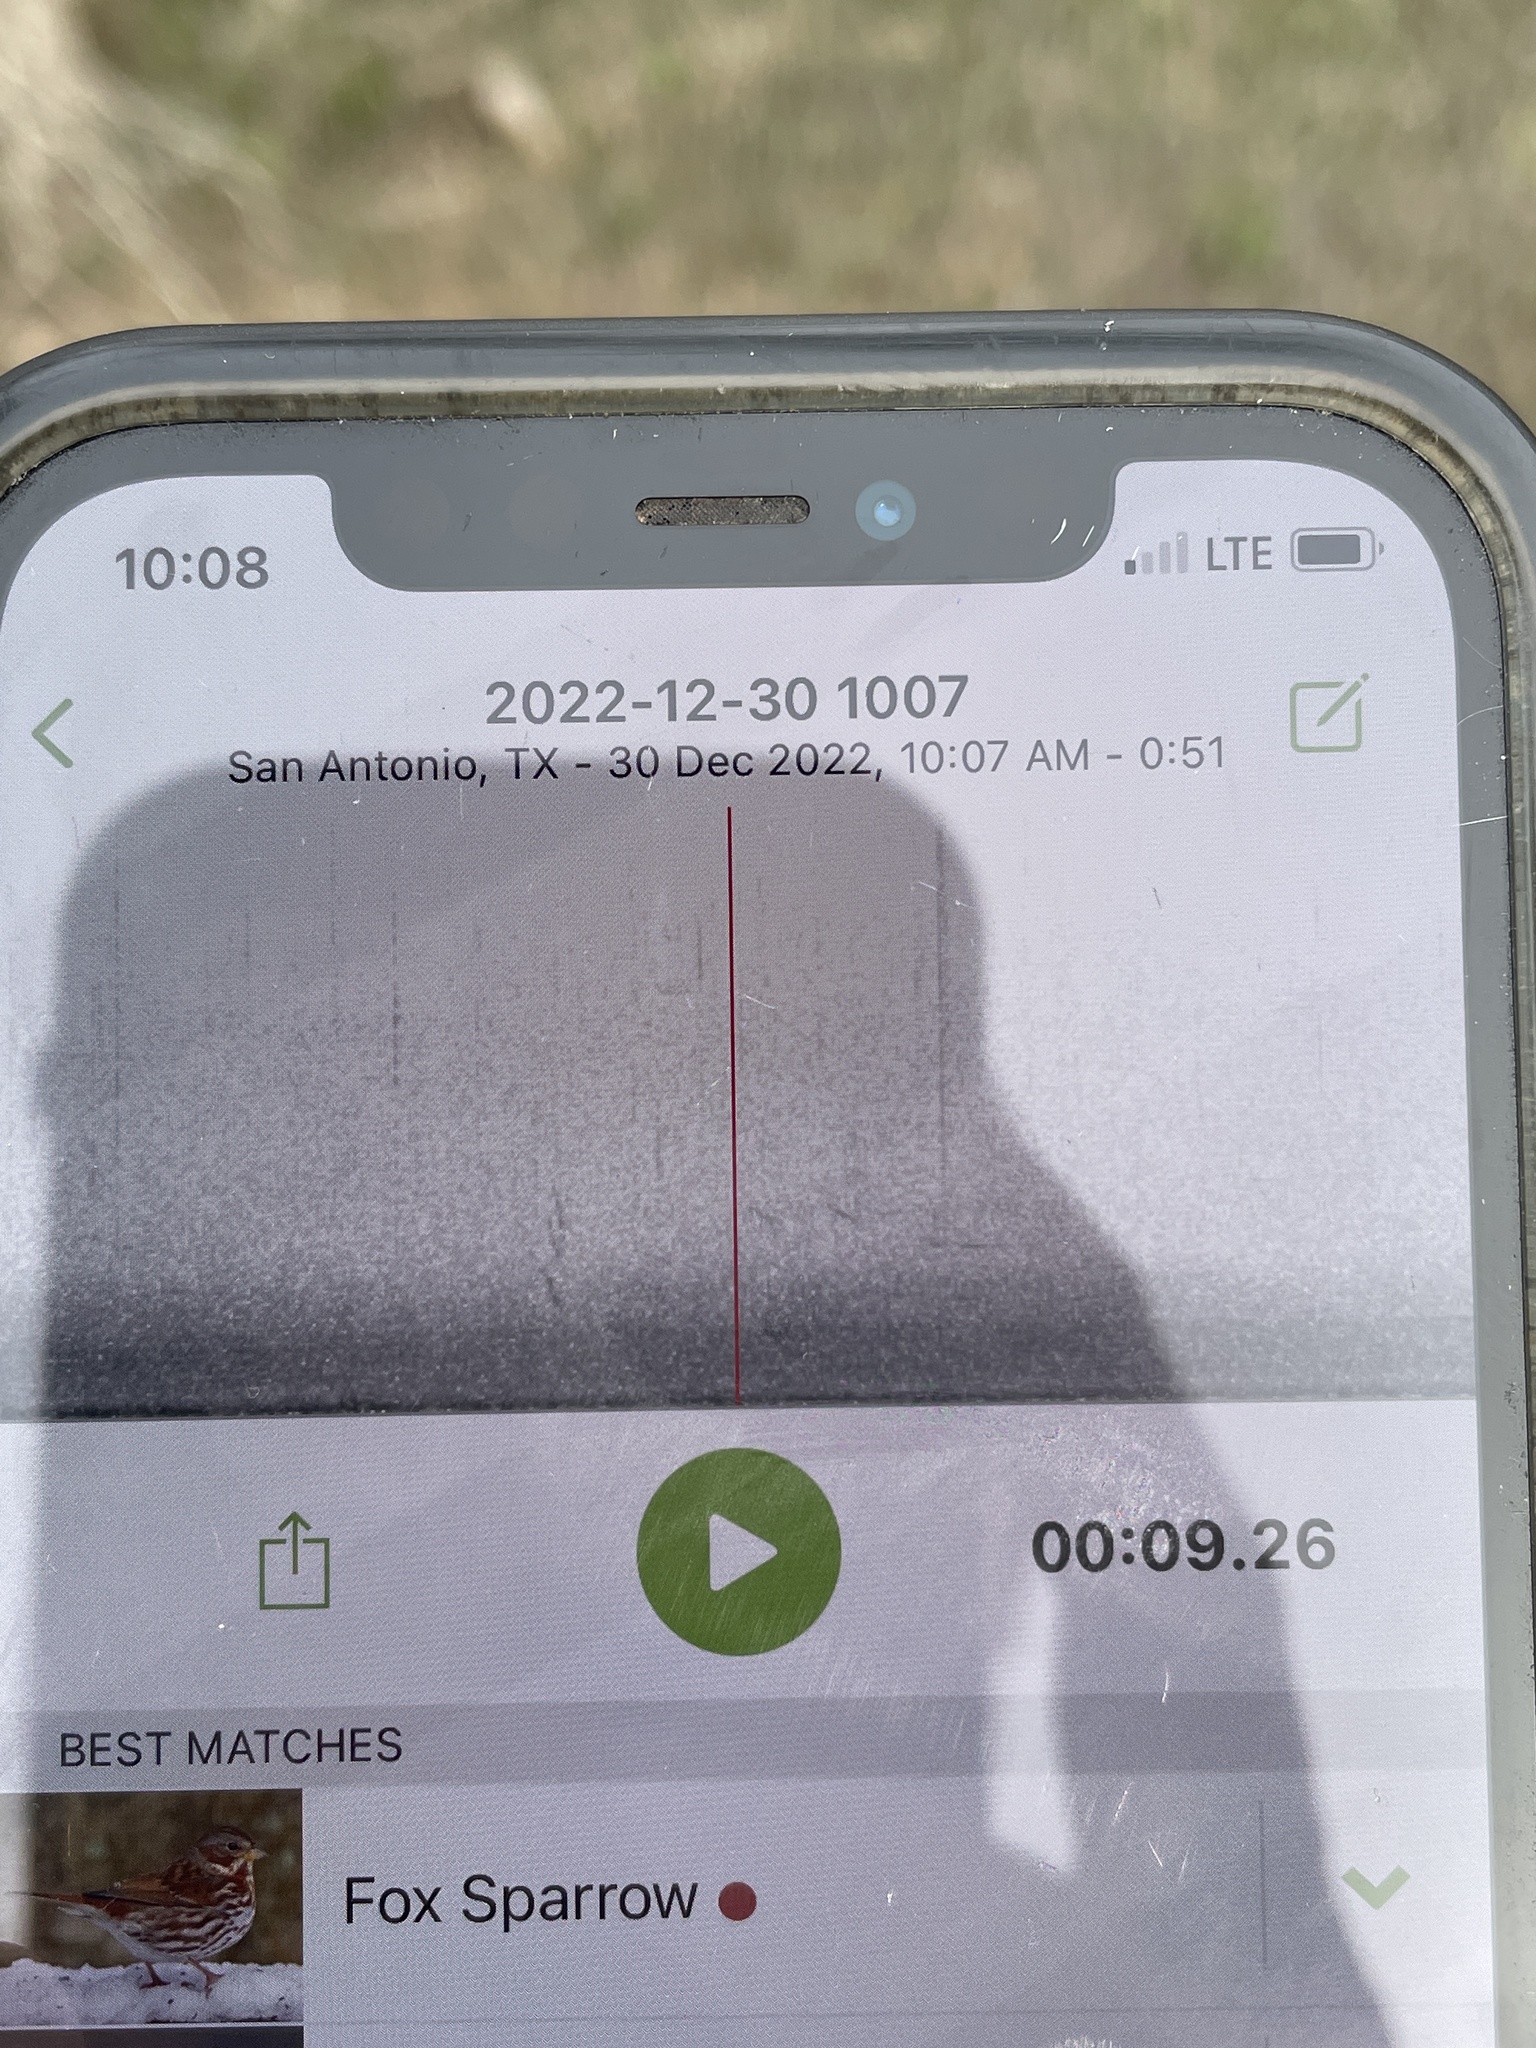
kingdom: Animalia
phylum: Chordata
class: Aves
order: Passeriformes
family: Passerellidae
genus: Passerella
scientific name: Passerella iliaca
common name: Fox sparrow
